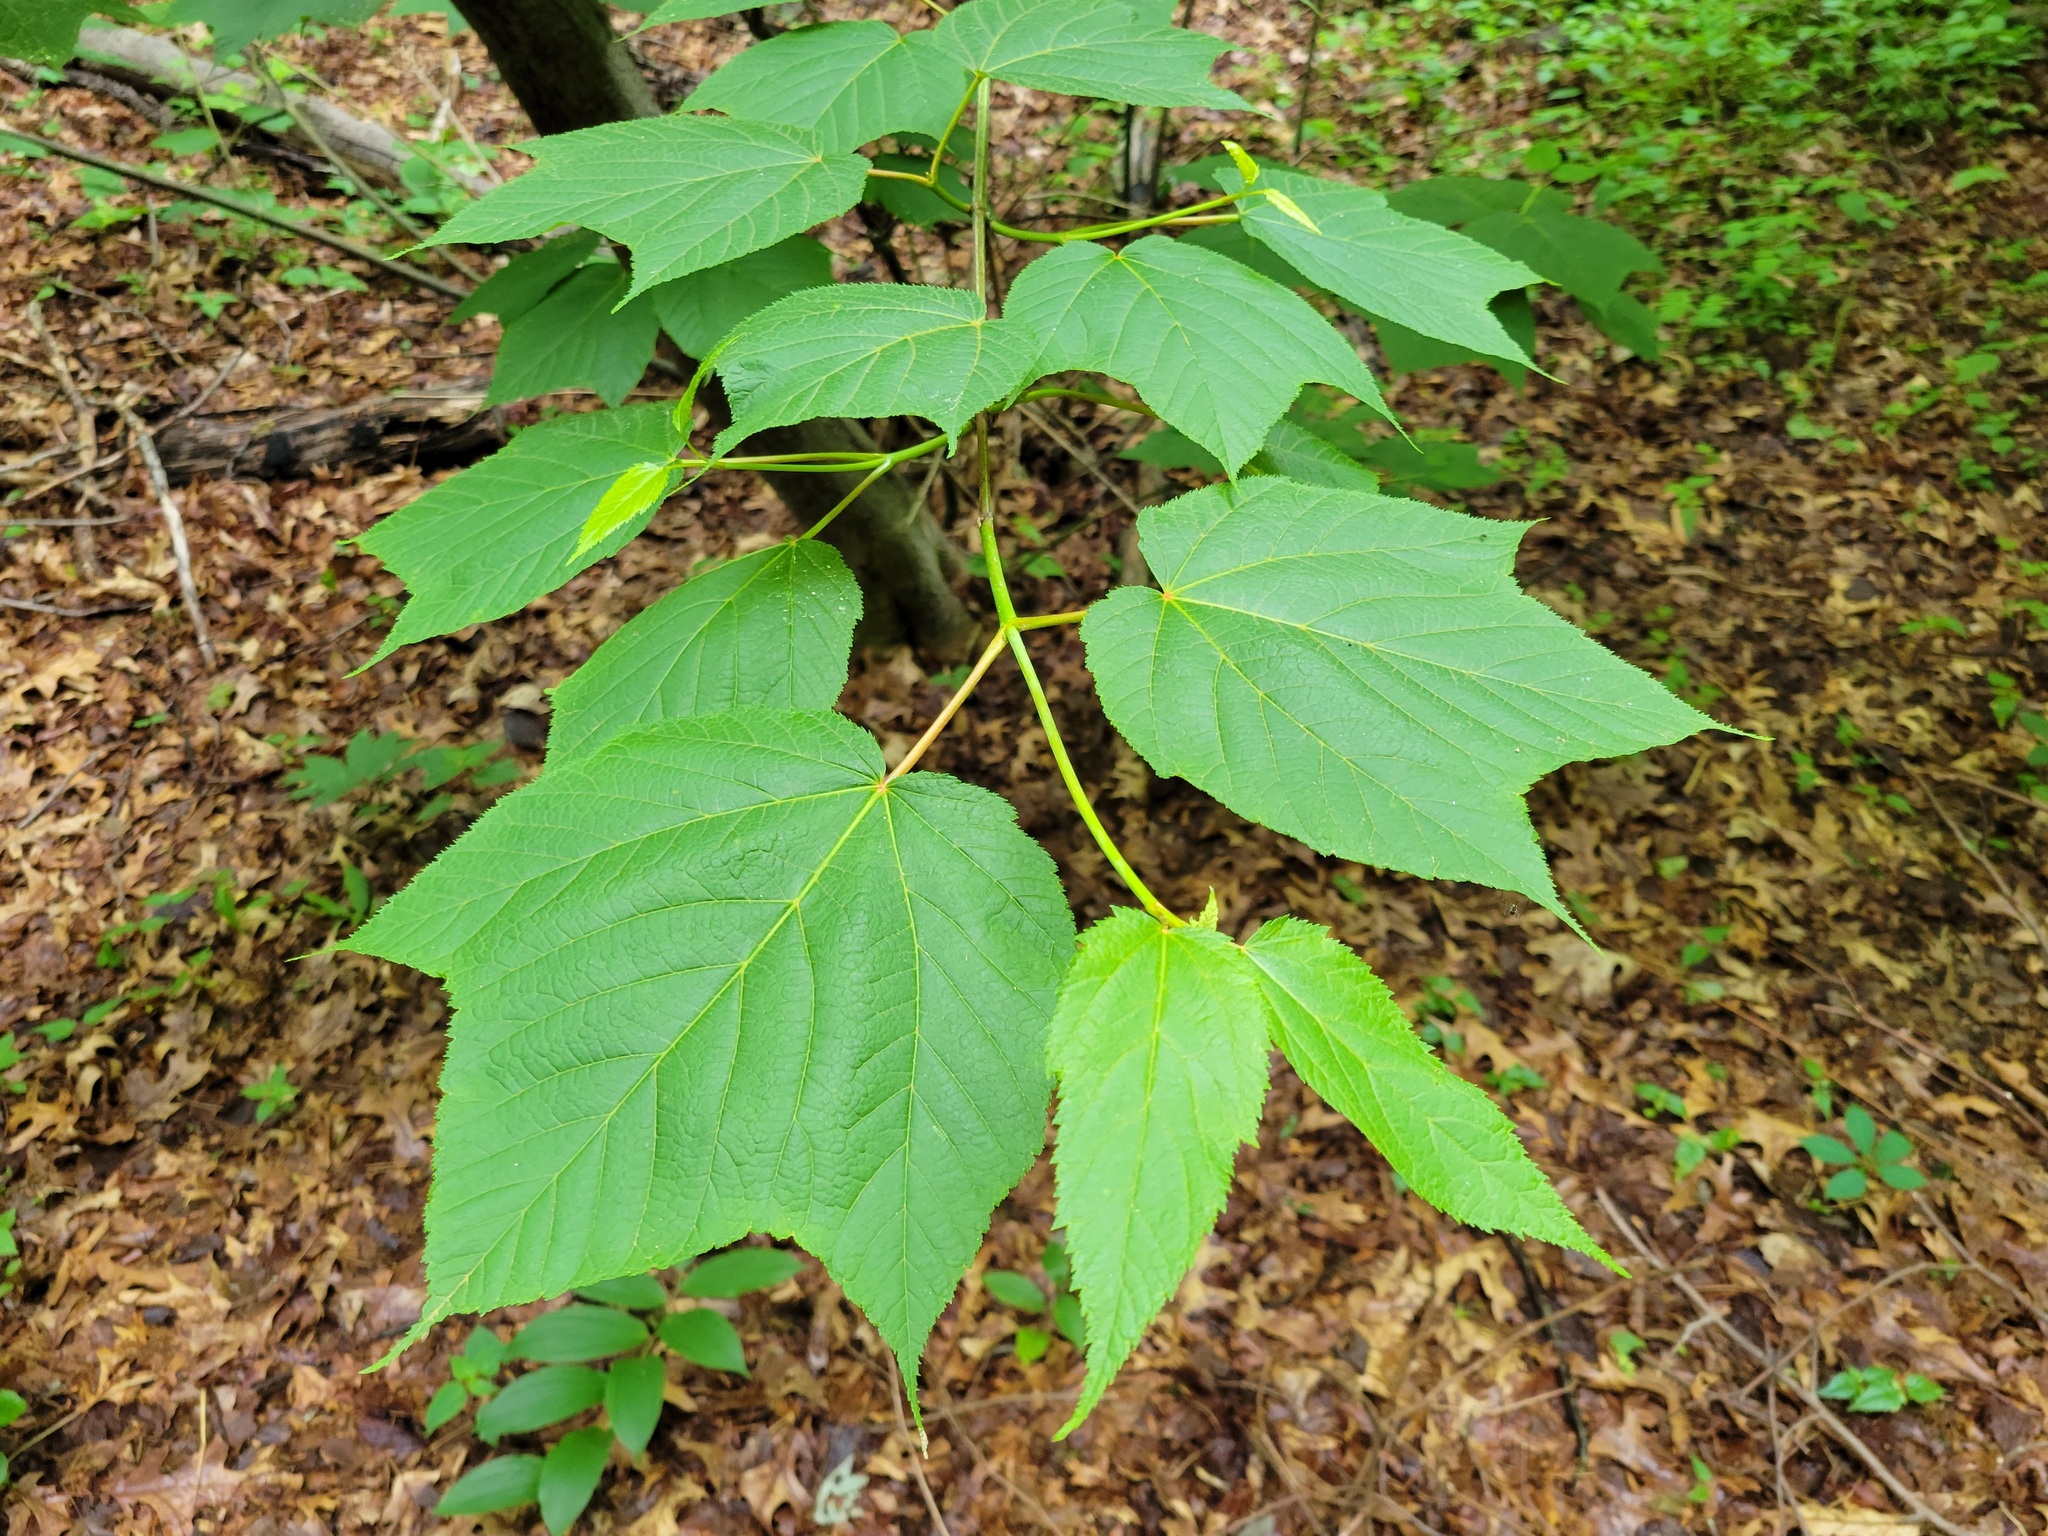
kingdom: Plantae
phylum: Tracheophyta
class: Magnoliopsida
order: Sapindales
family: Sapindaceae
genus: Acer
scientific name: Acer pensylvanicum
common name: Moosewood
